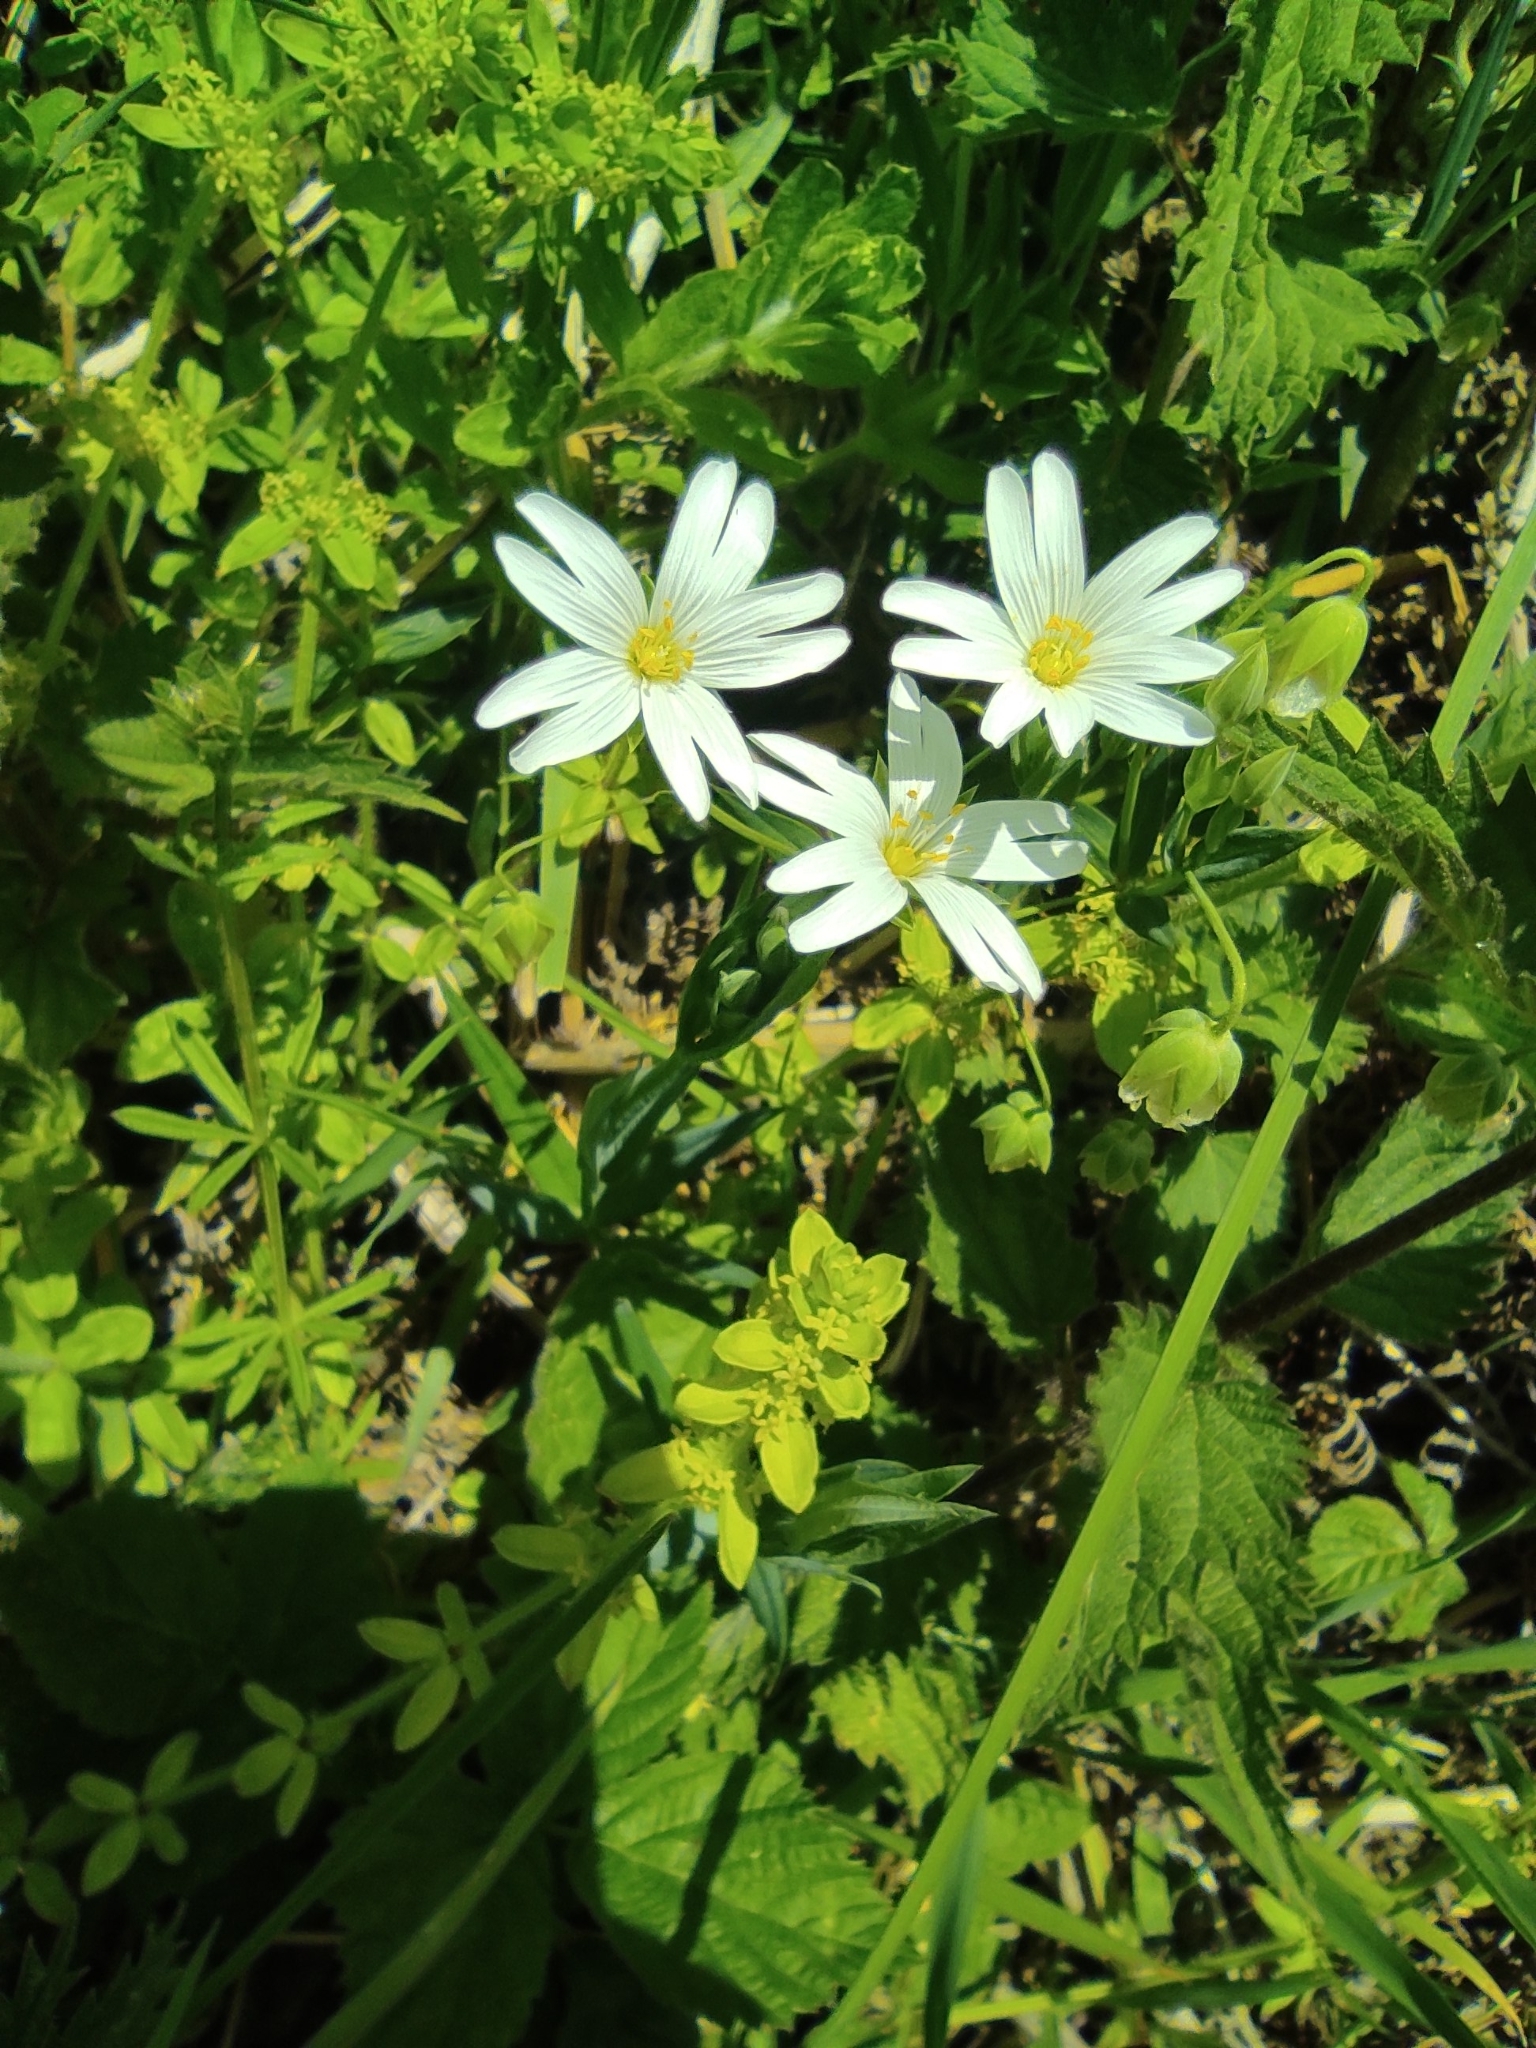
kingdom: Plantae
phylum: Tracheophyta
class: Magnoliopsida
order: Caryophyllales
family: Caryophyllaceae
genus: Rabelera
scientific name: Rabelera holostea
